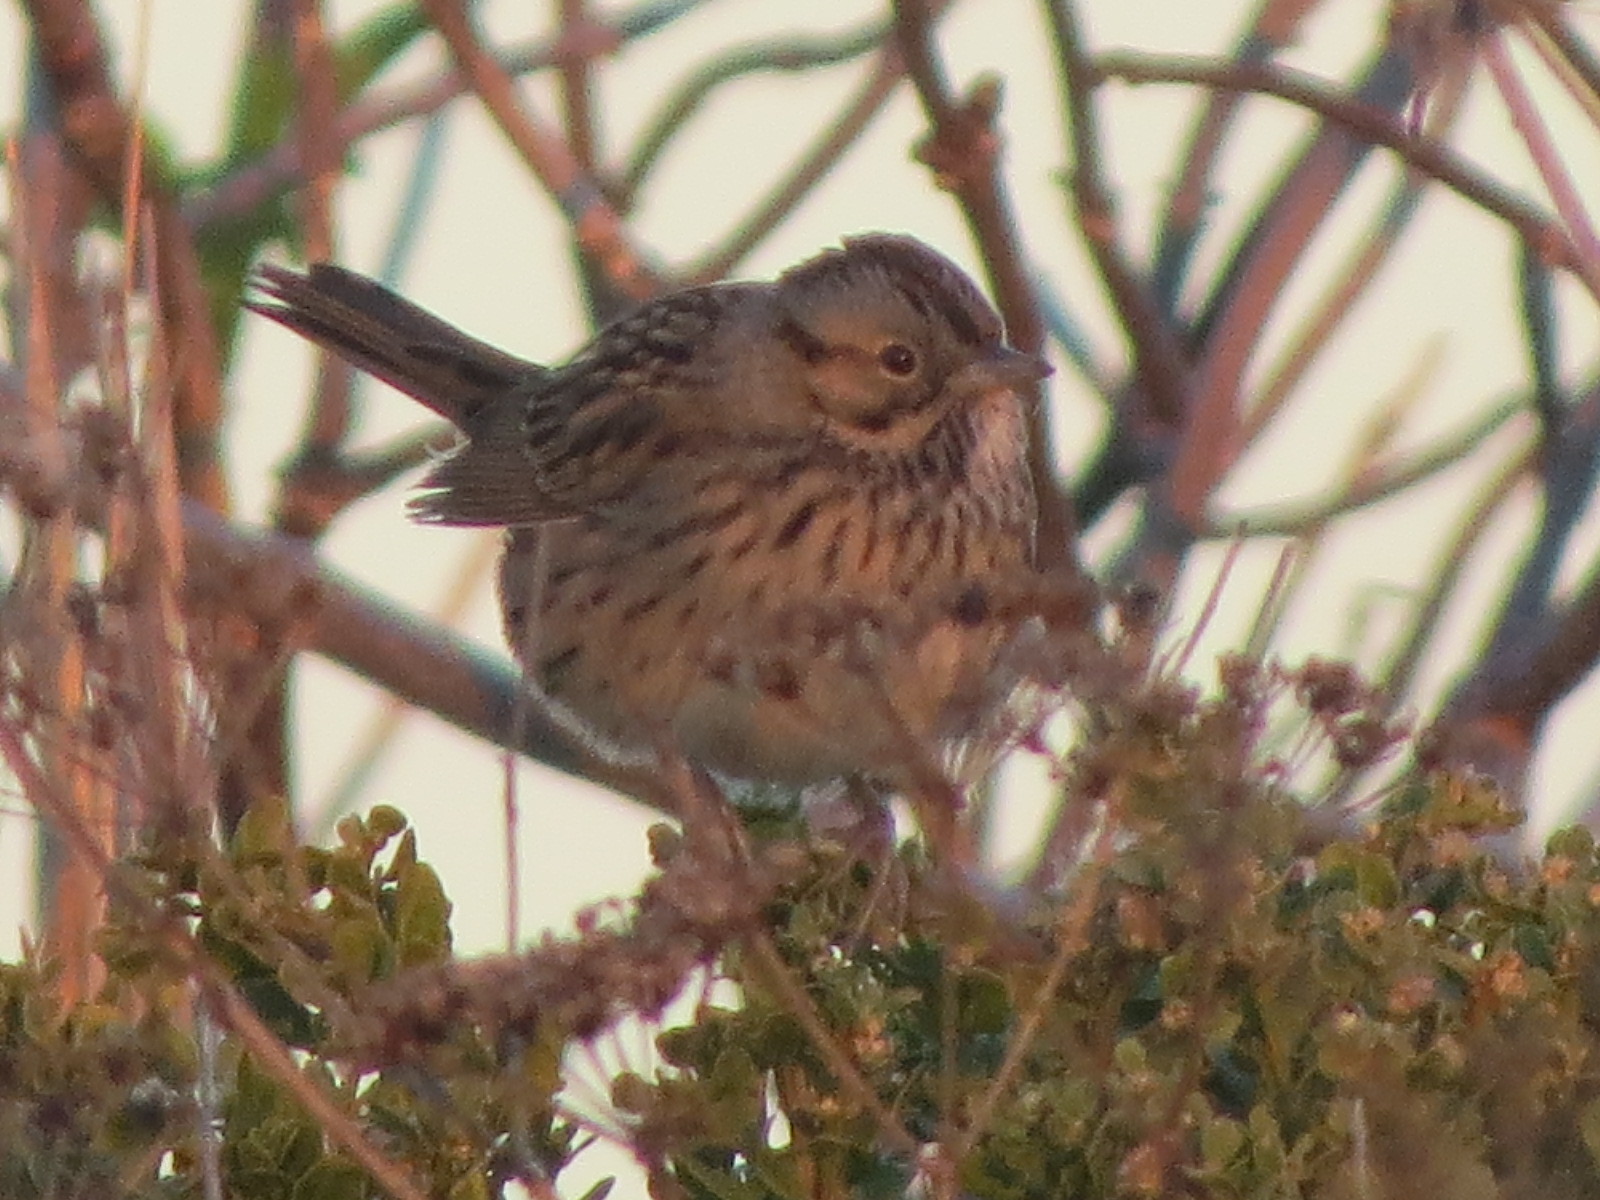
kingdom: Animalia
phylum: Chordata
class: Aves
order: Passeriformes
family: Passerellidae
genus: Melospiza
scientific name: Melospiza lincolnii
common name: Lincoln's sparrow
